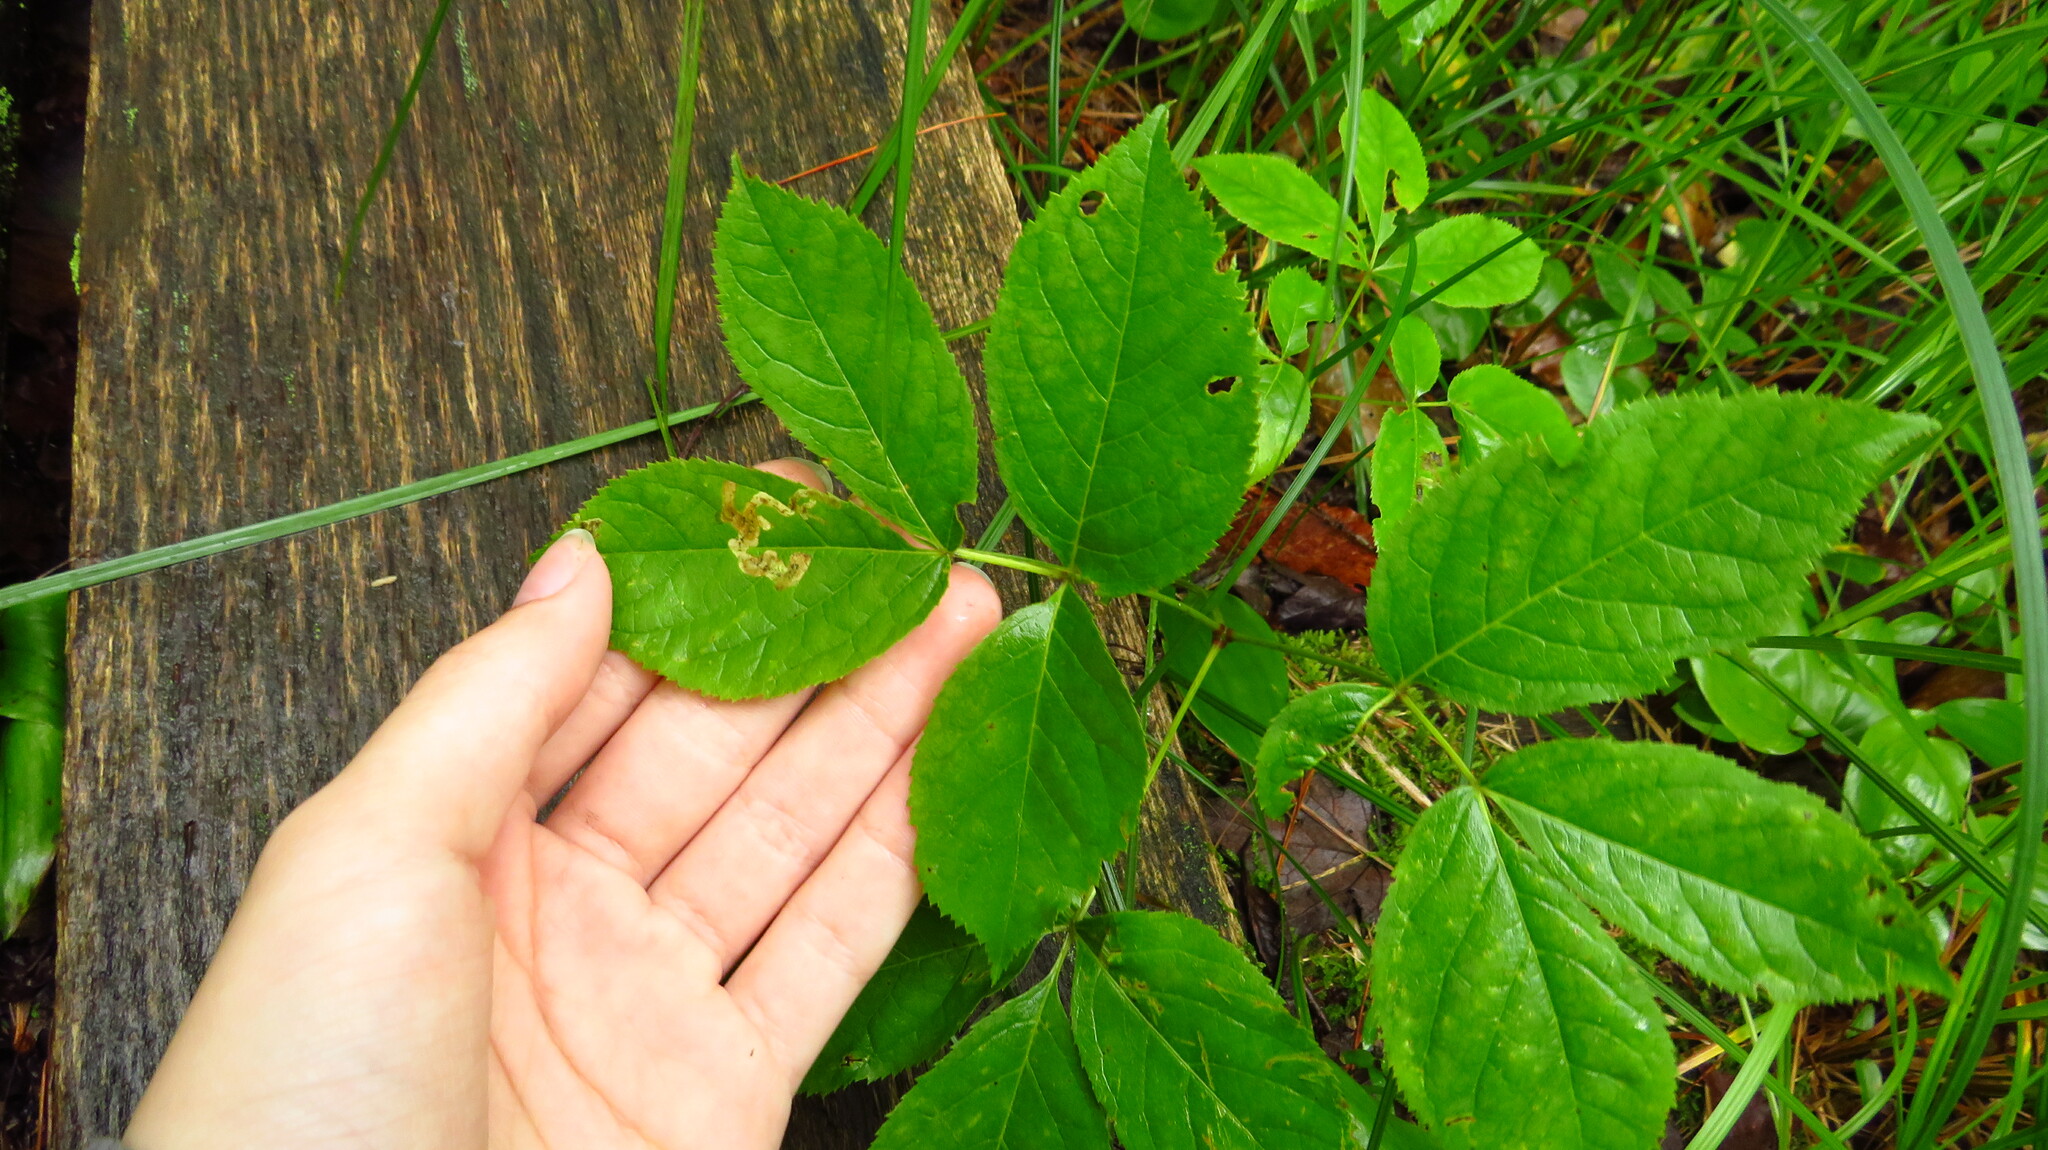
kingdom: Animalia
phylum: Arthropoda
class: Insecta
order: Diptera
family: Agromyzidae
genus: Phytomyza
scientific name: Phytomyza aralivora
